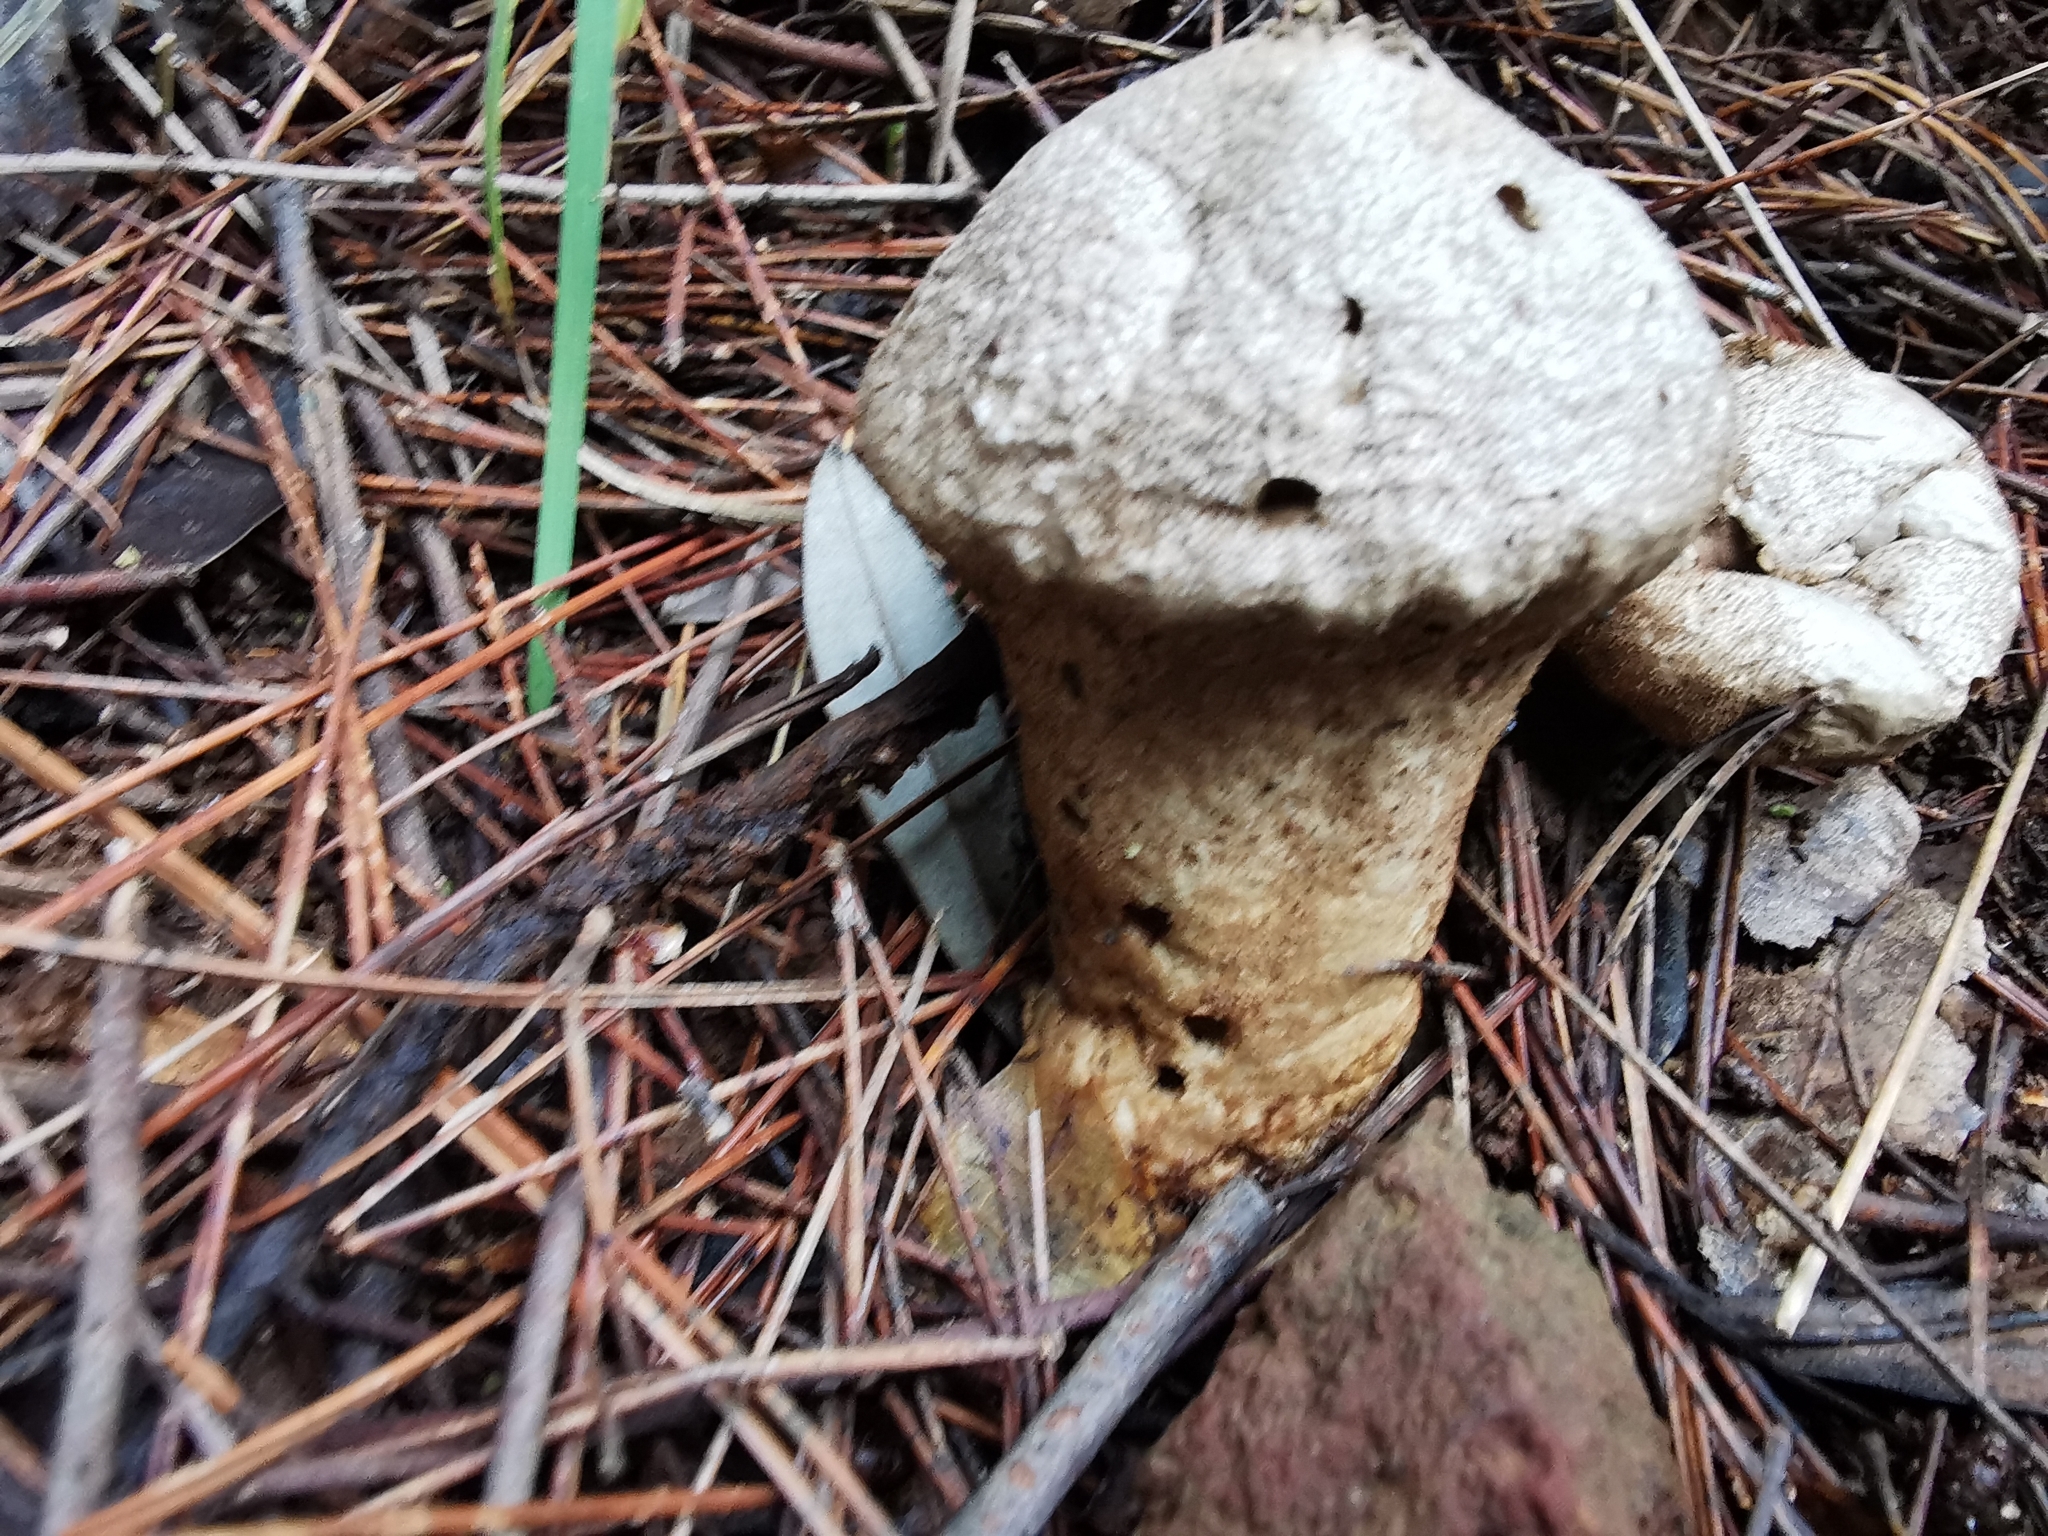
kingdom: Fungi
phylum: Basidiomycota
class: Agaricomycetes
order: Agaricales
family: Lycoperdaceae
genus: Lycoperdon
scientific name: Lycoperdon perlatum
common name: Common puffball
